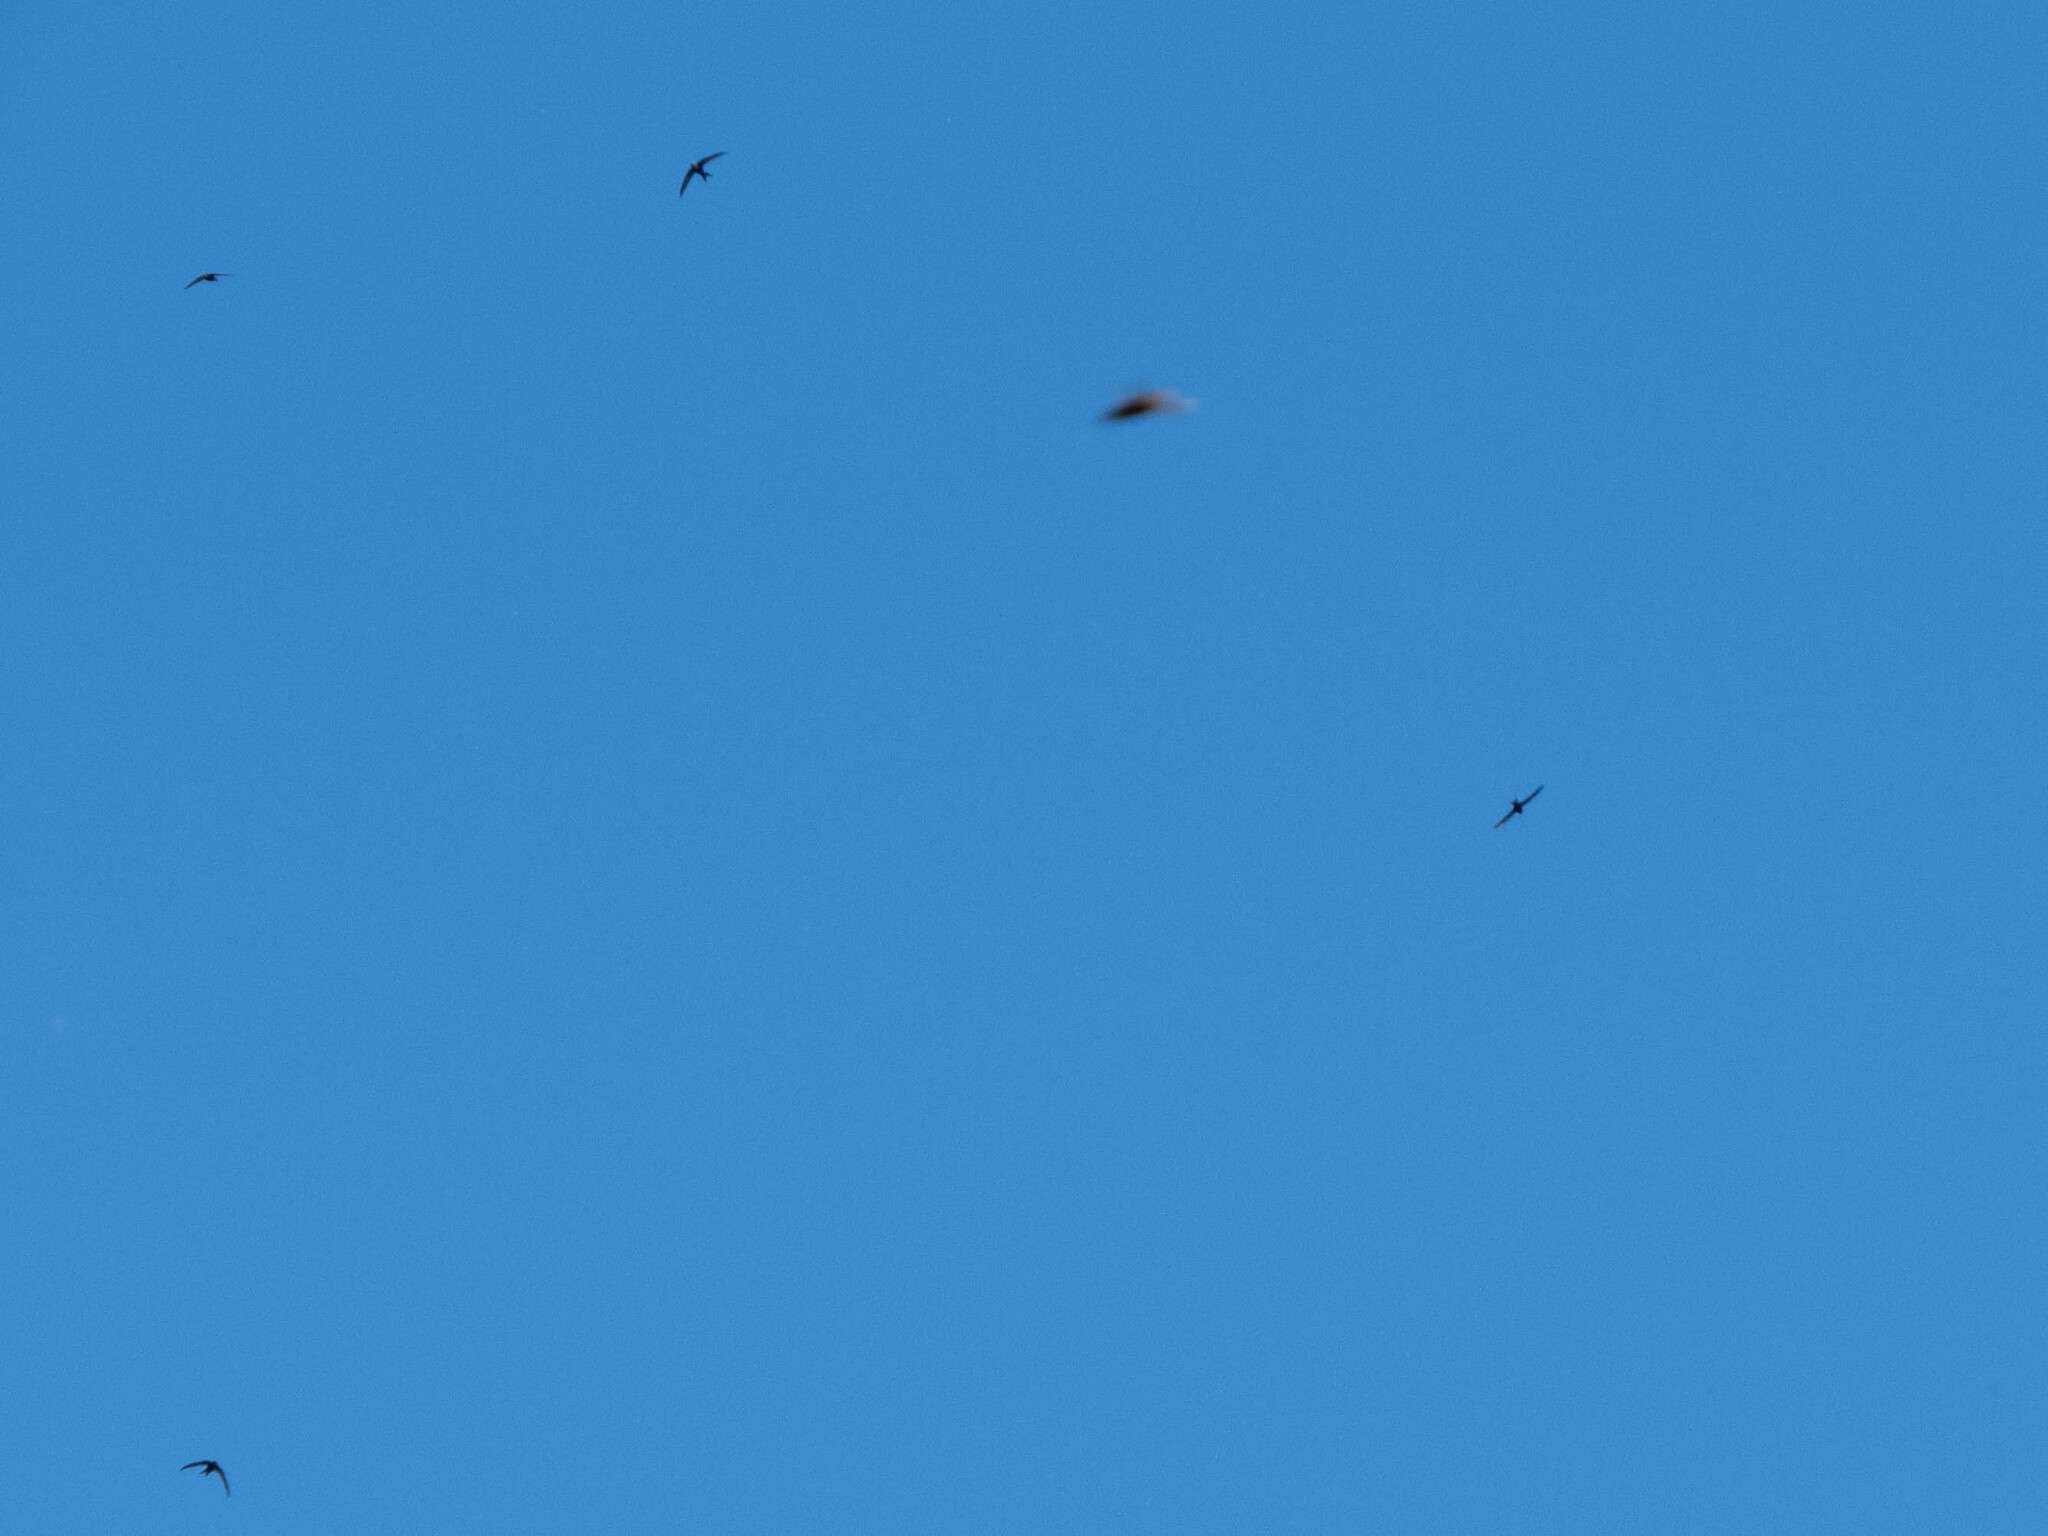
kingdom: Animalia
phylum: Chordata
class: Aves
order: Apodiformes
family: Apodidae
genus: Apus
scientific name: Apus apus
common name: Common swift
